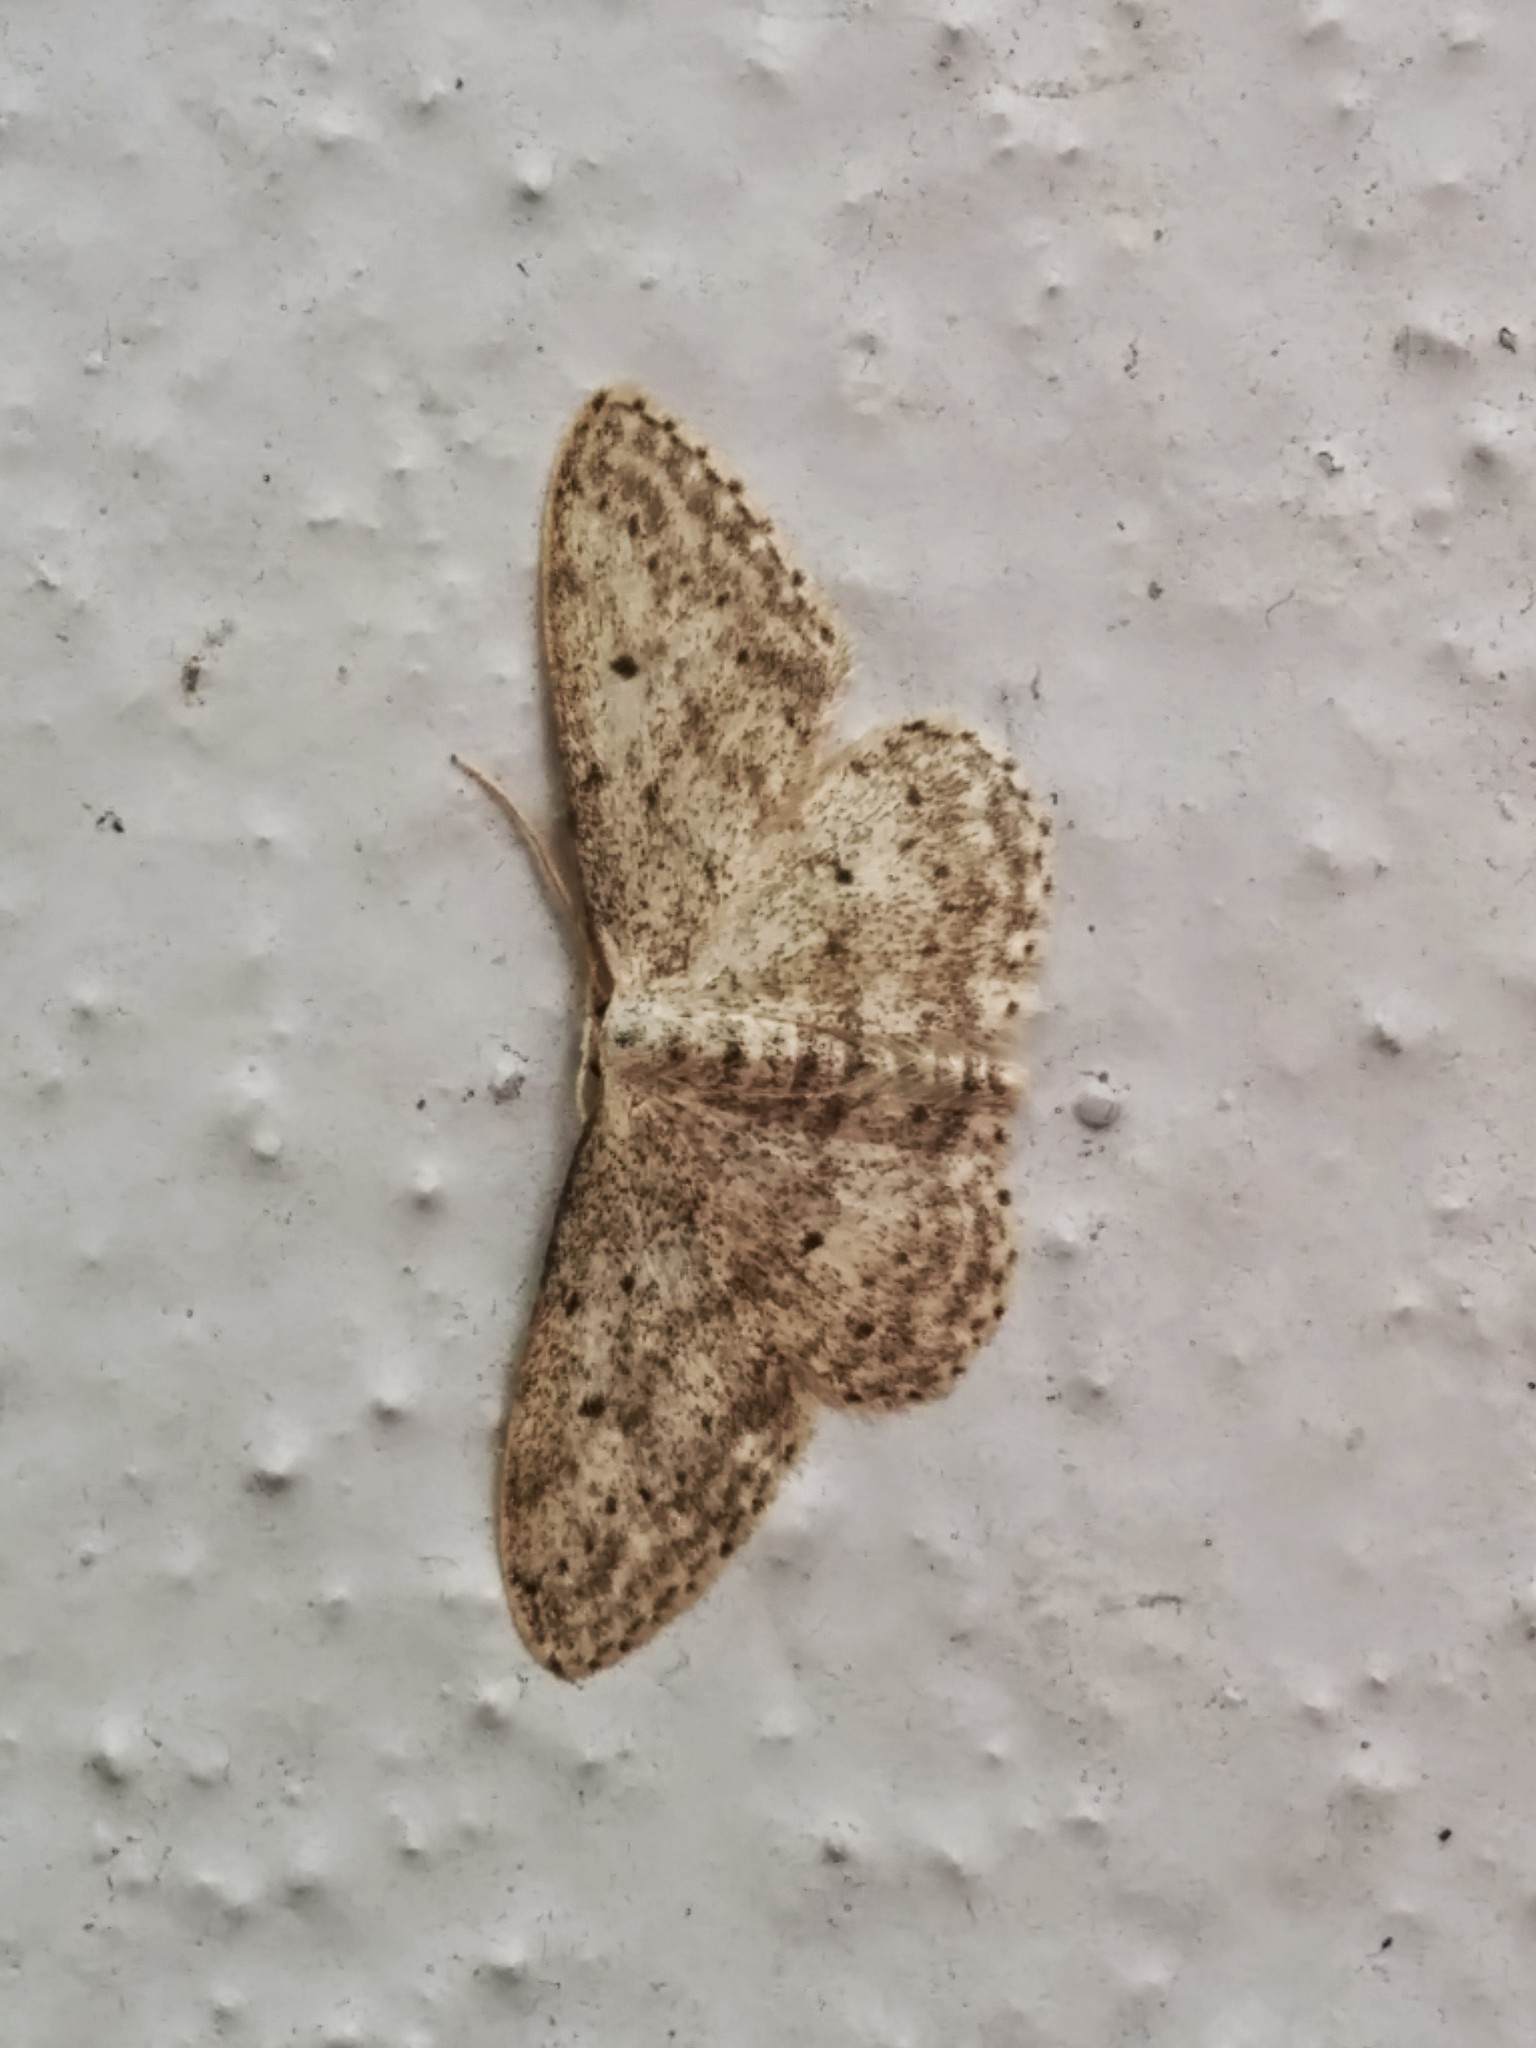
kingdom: Animalia
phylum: Arthropoda
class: Insecta
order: Lepidoptera
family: Geometridae
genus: Idaea
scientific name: Idaea seriata
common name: Small dusty wave
